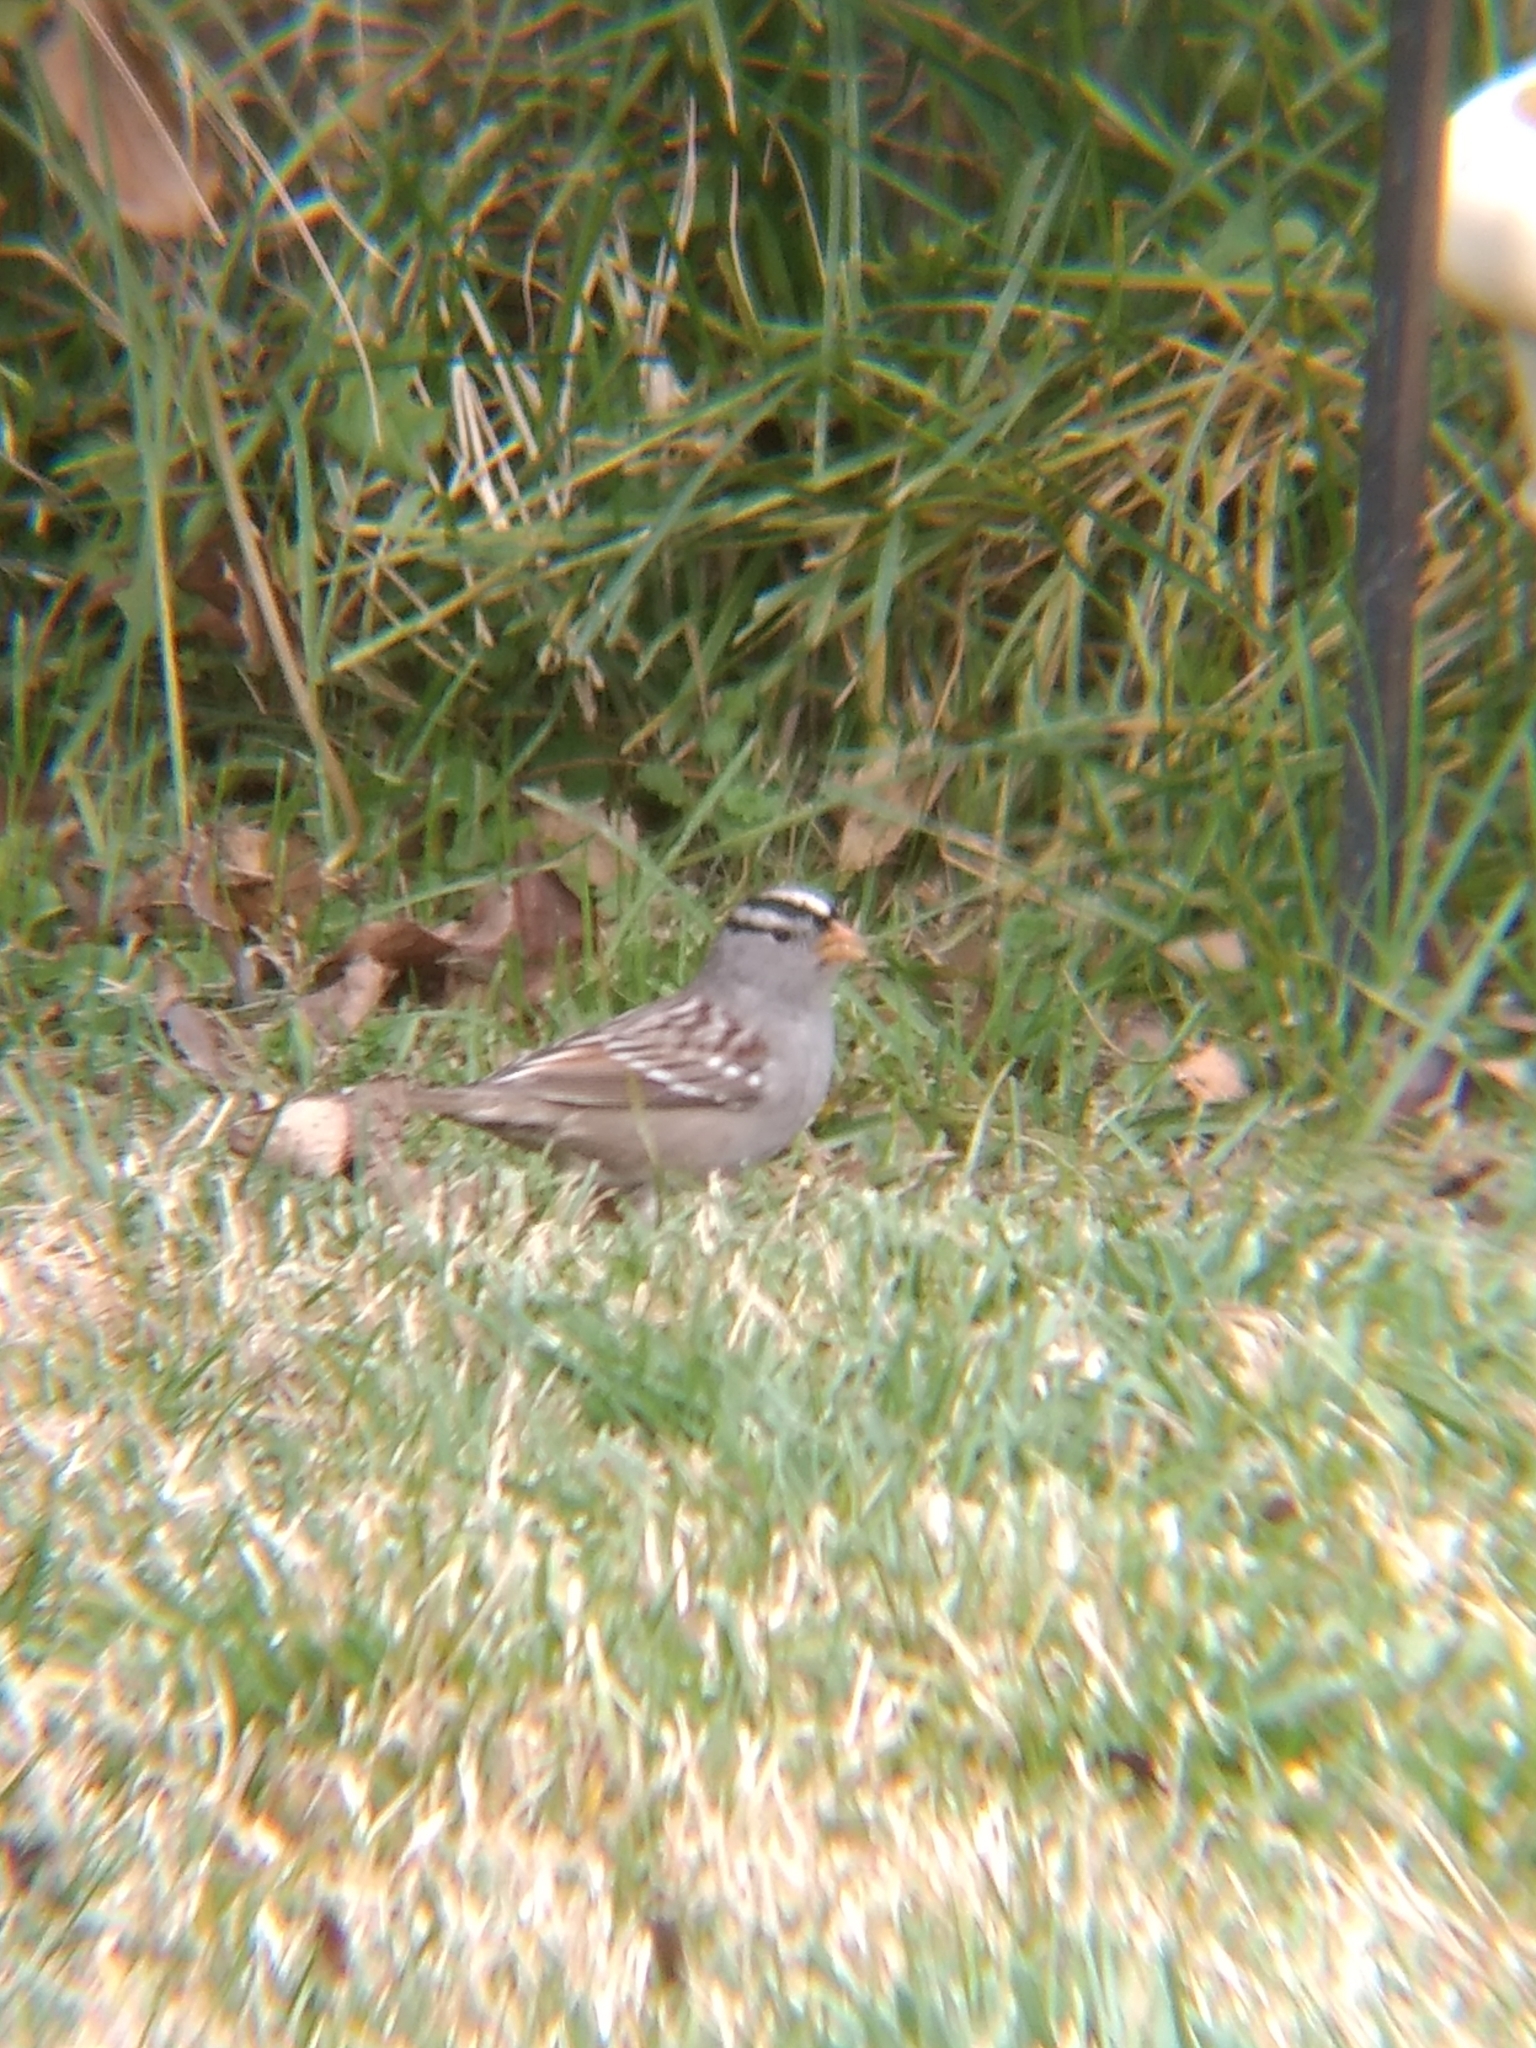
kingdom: Animalia
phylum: Chordata
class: Aves
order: Passeriformes
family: Passerellidae
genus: Zonotrichia
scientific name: Zonotrichia leucophrys
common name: White-crowned sparrow
